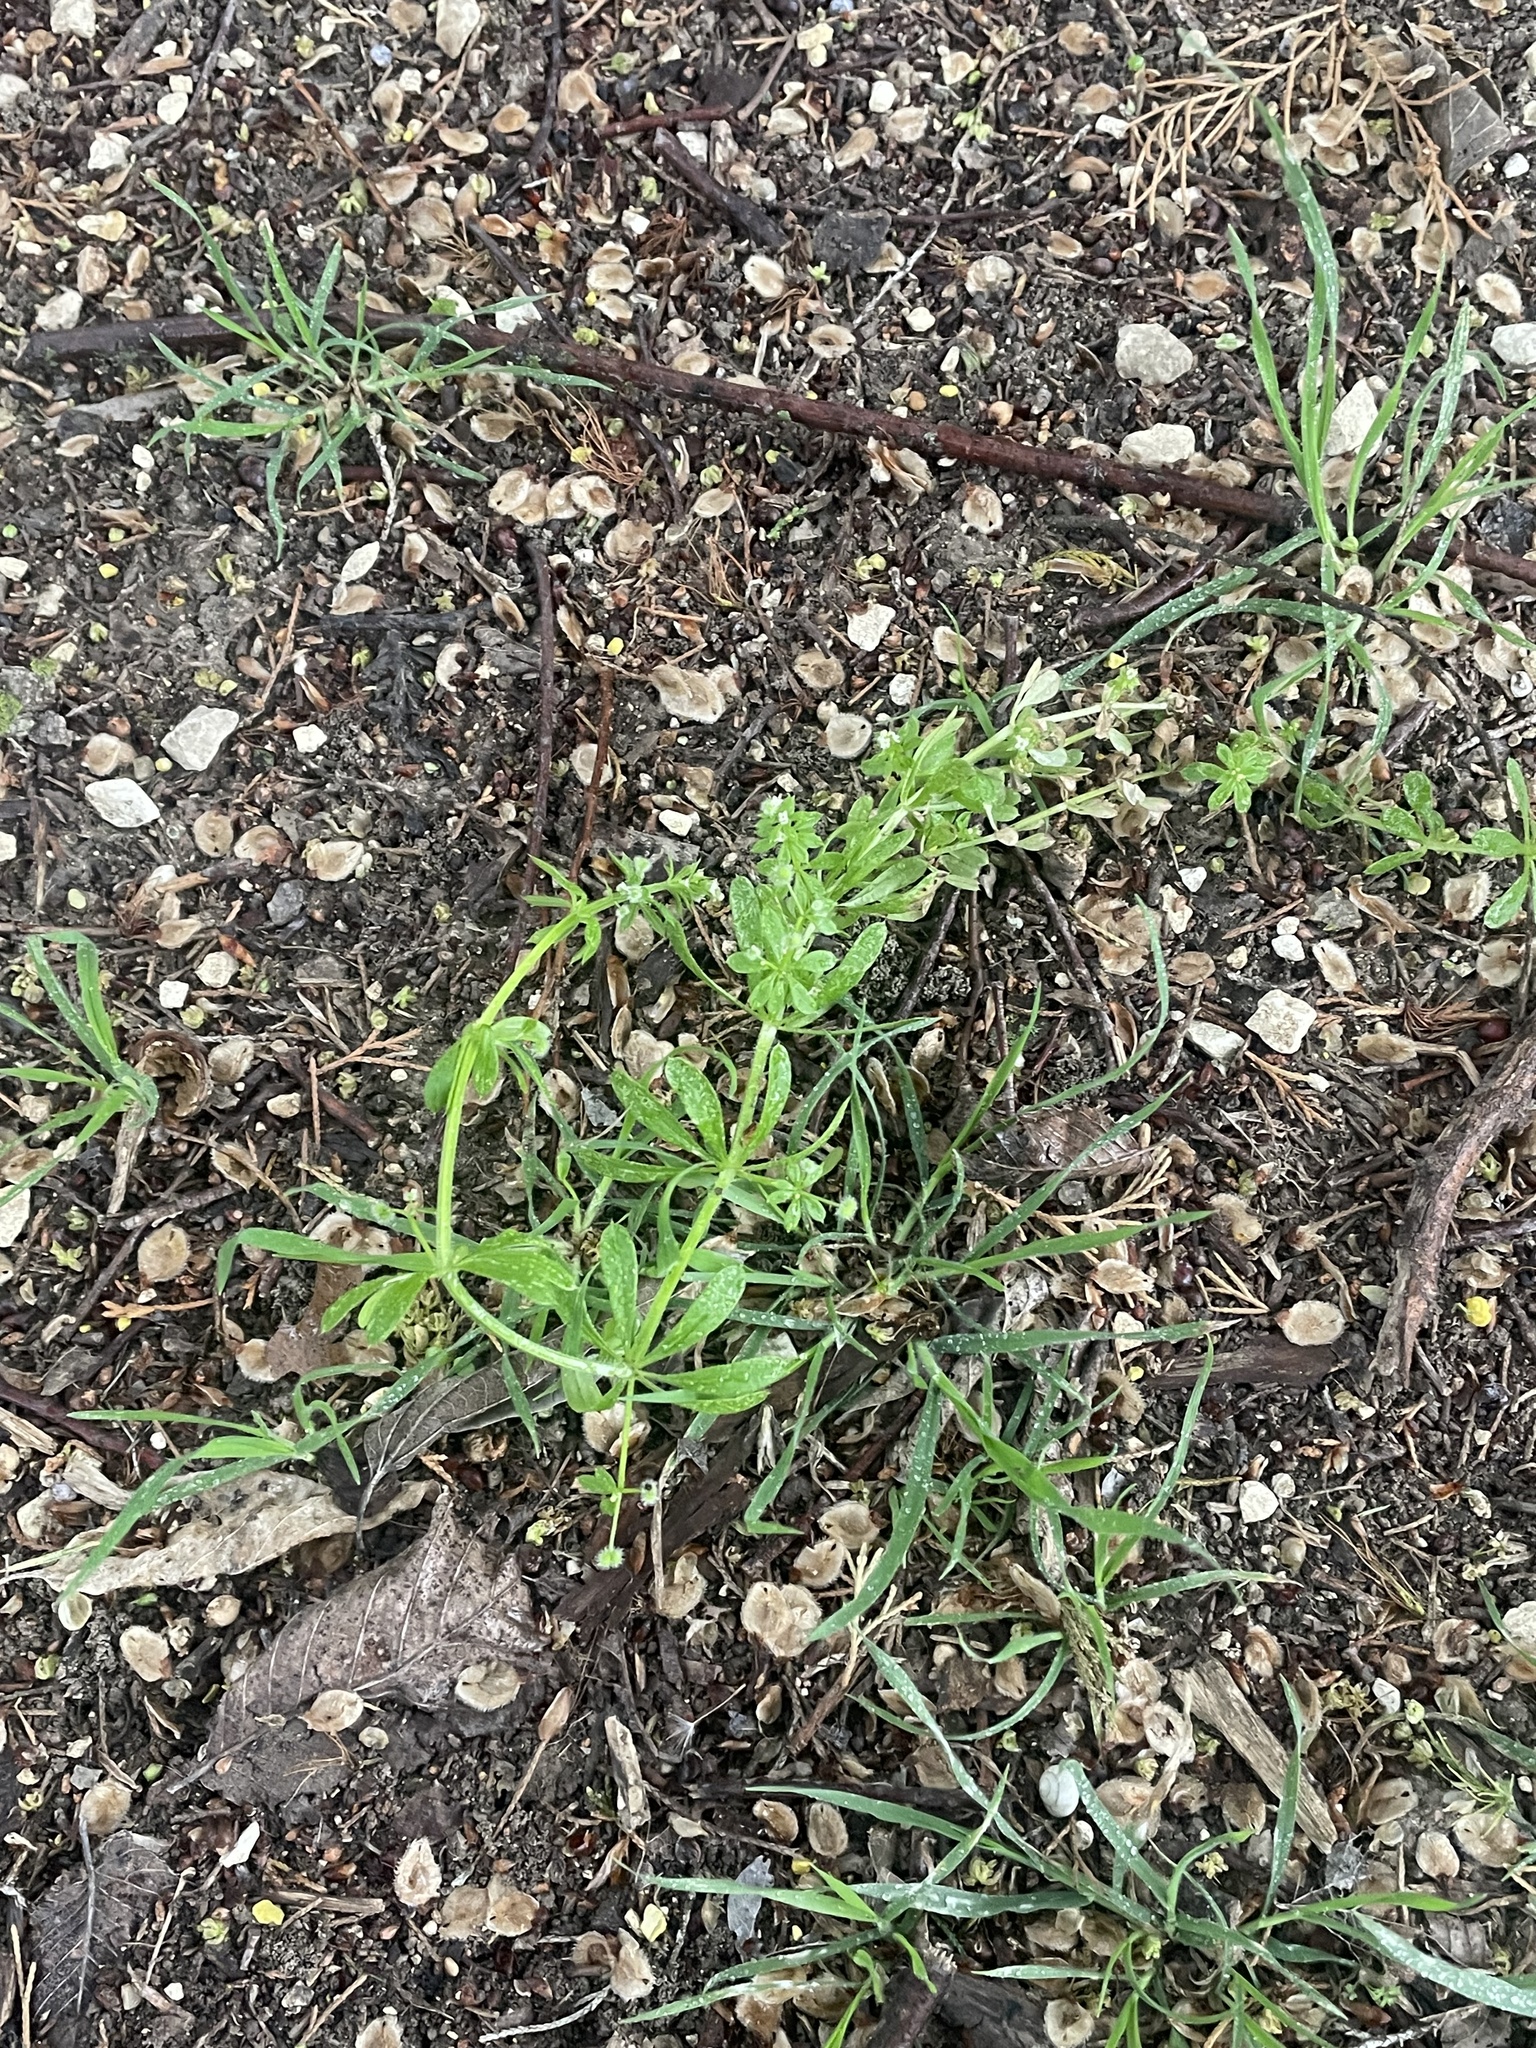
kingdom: Plantae
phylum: Tracheophyta
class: Magnoliopsida
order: Gentianales
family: Rubiaceae
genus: Galium
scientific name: Galium aparine
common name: Cleavers
